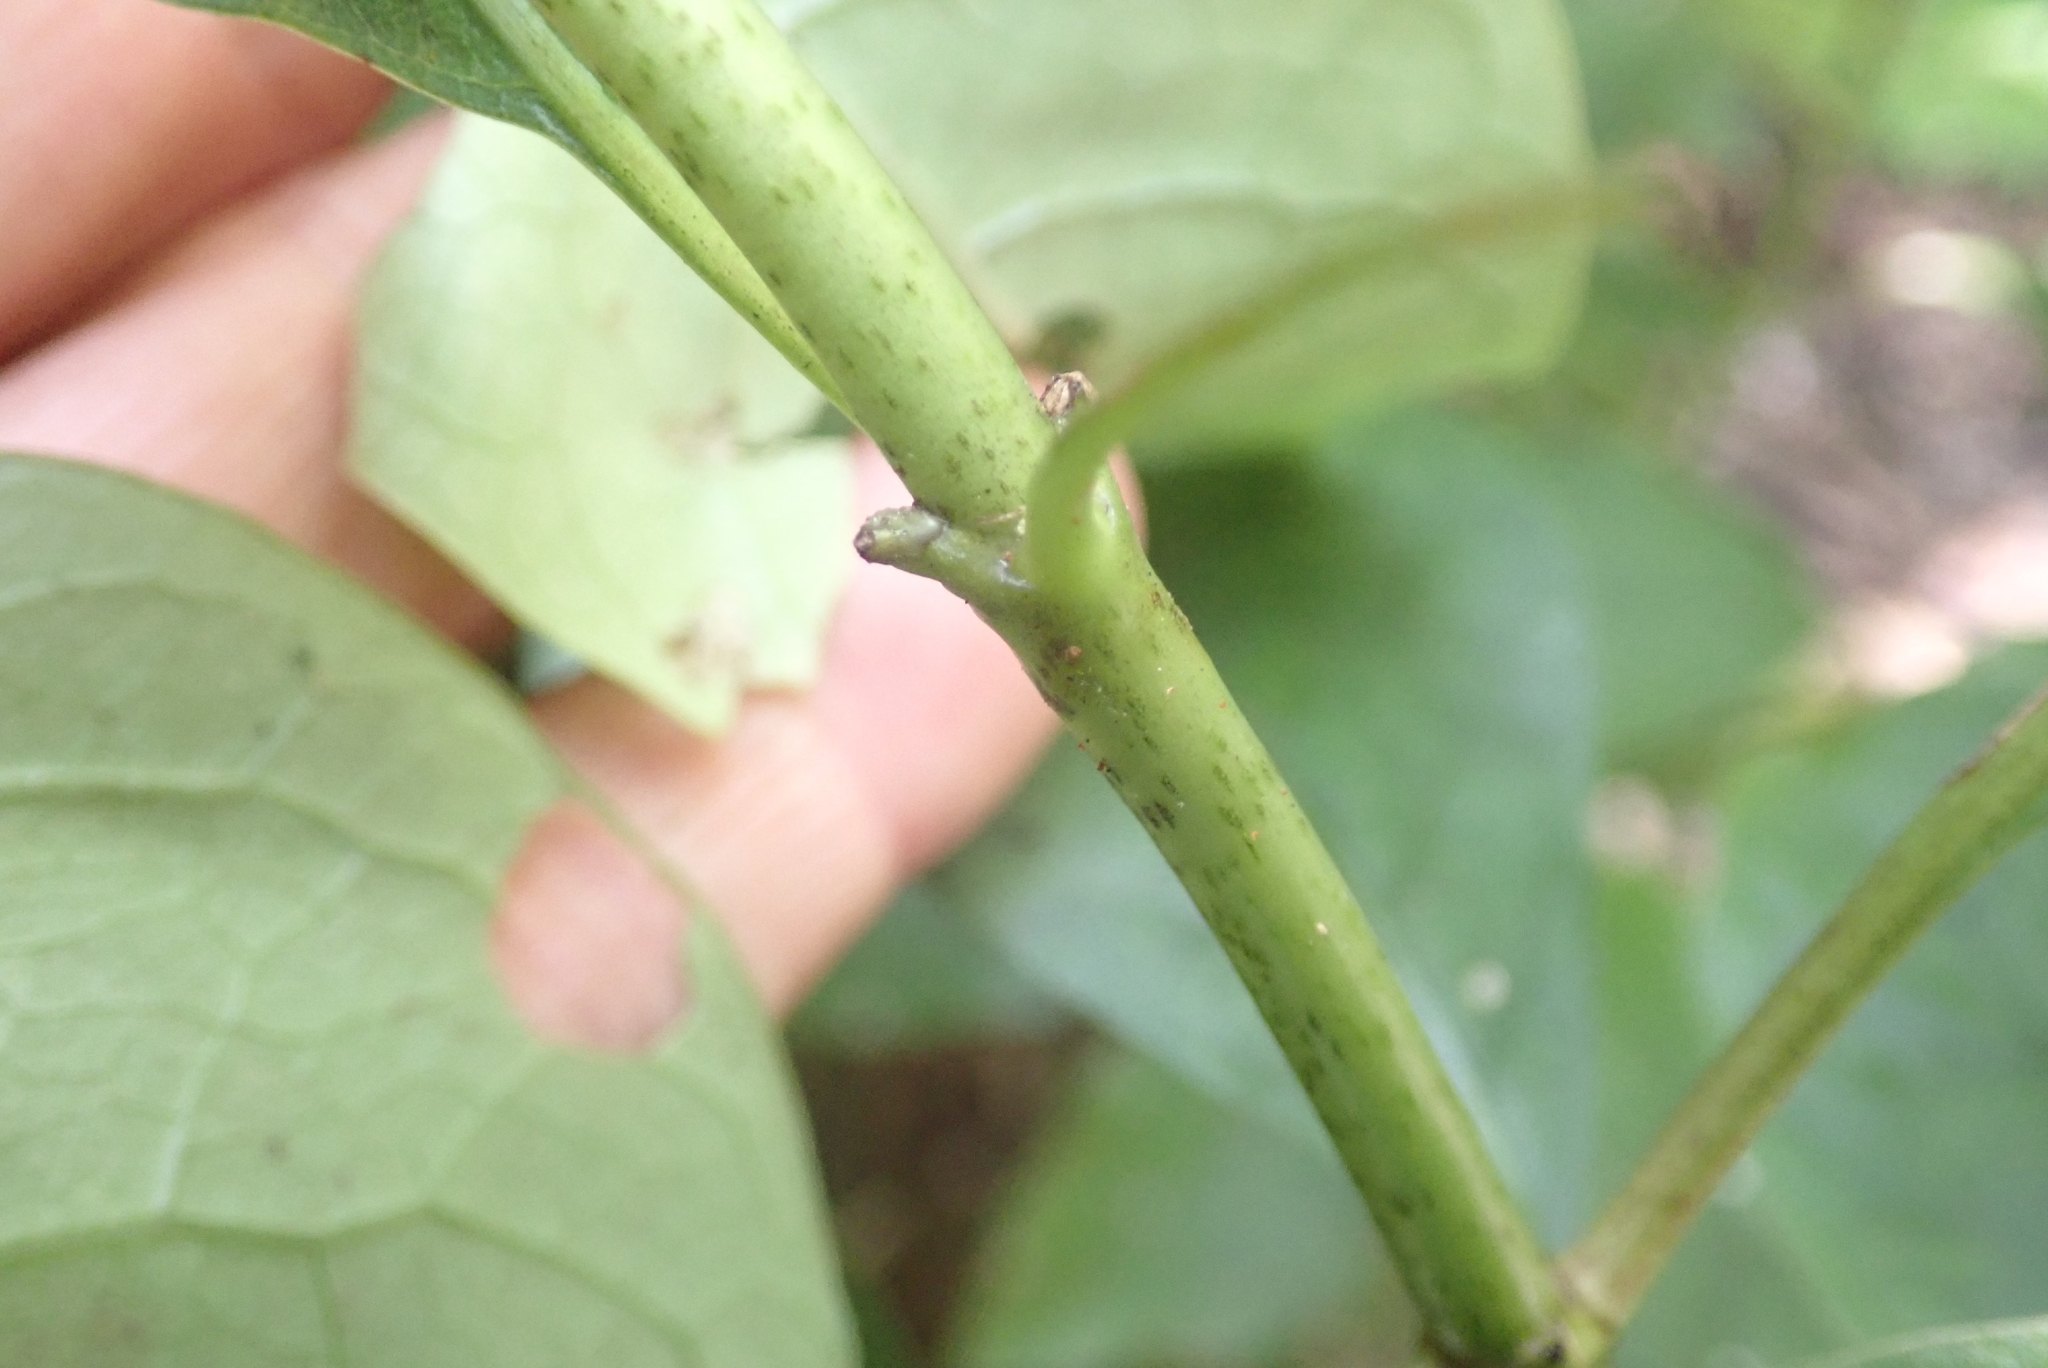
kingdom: Plantae
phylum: Tracheophyta
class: Magnoliopsida
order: Gentianales
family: Rubiaceae
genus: Coprosma
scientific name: Coprosma autumnalis
